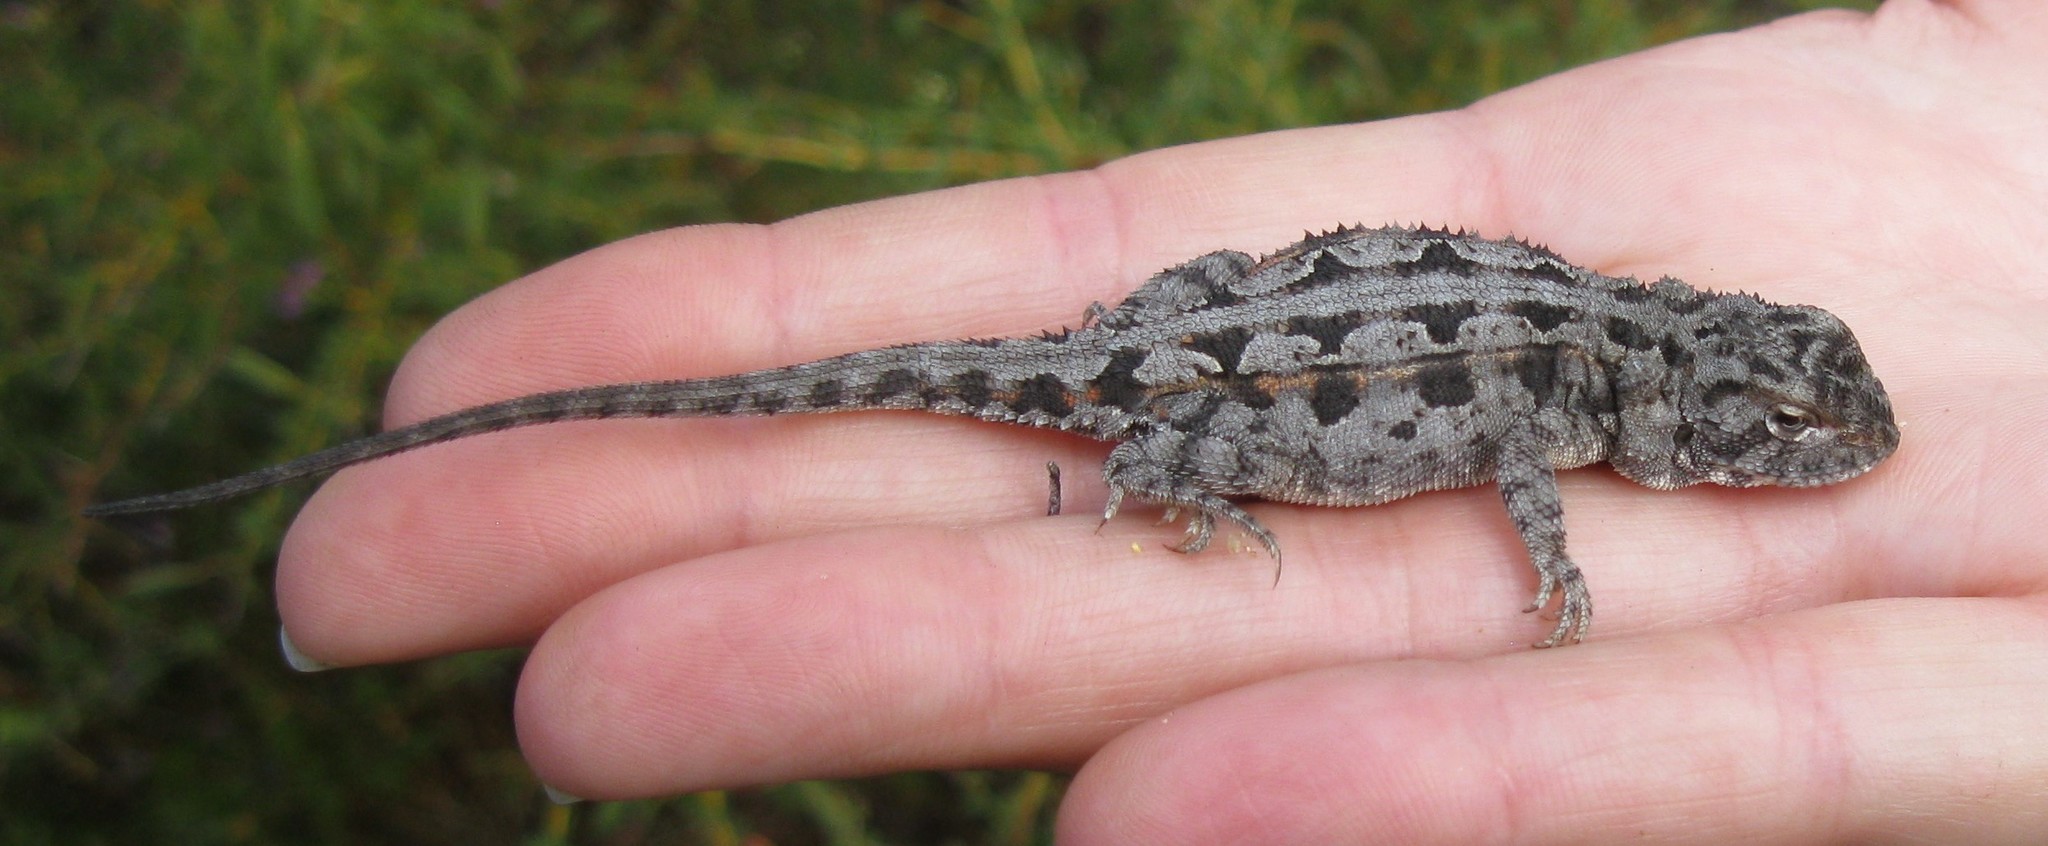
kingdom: Animalia
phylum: Chordata
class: Squamata
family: Agamidae
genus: Ctenophorus
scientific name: Ctenophorus adelaidensis
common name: Western heath dragon
